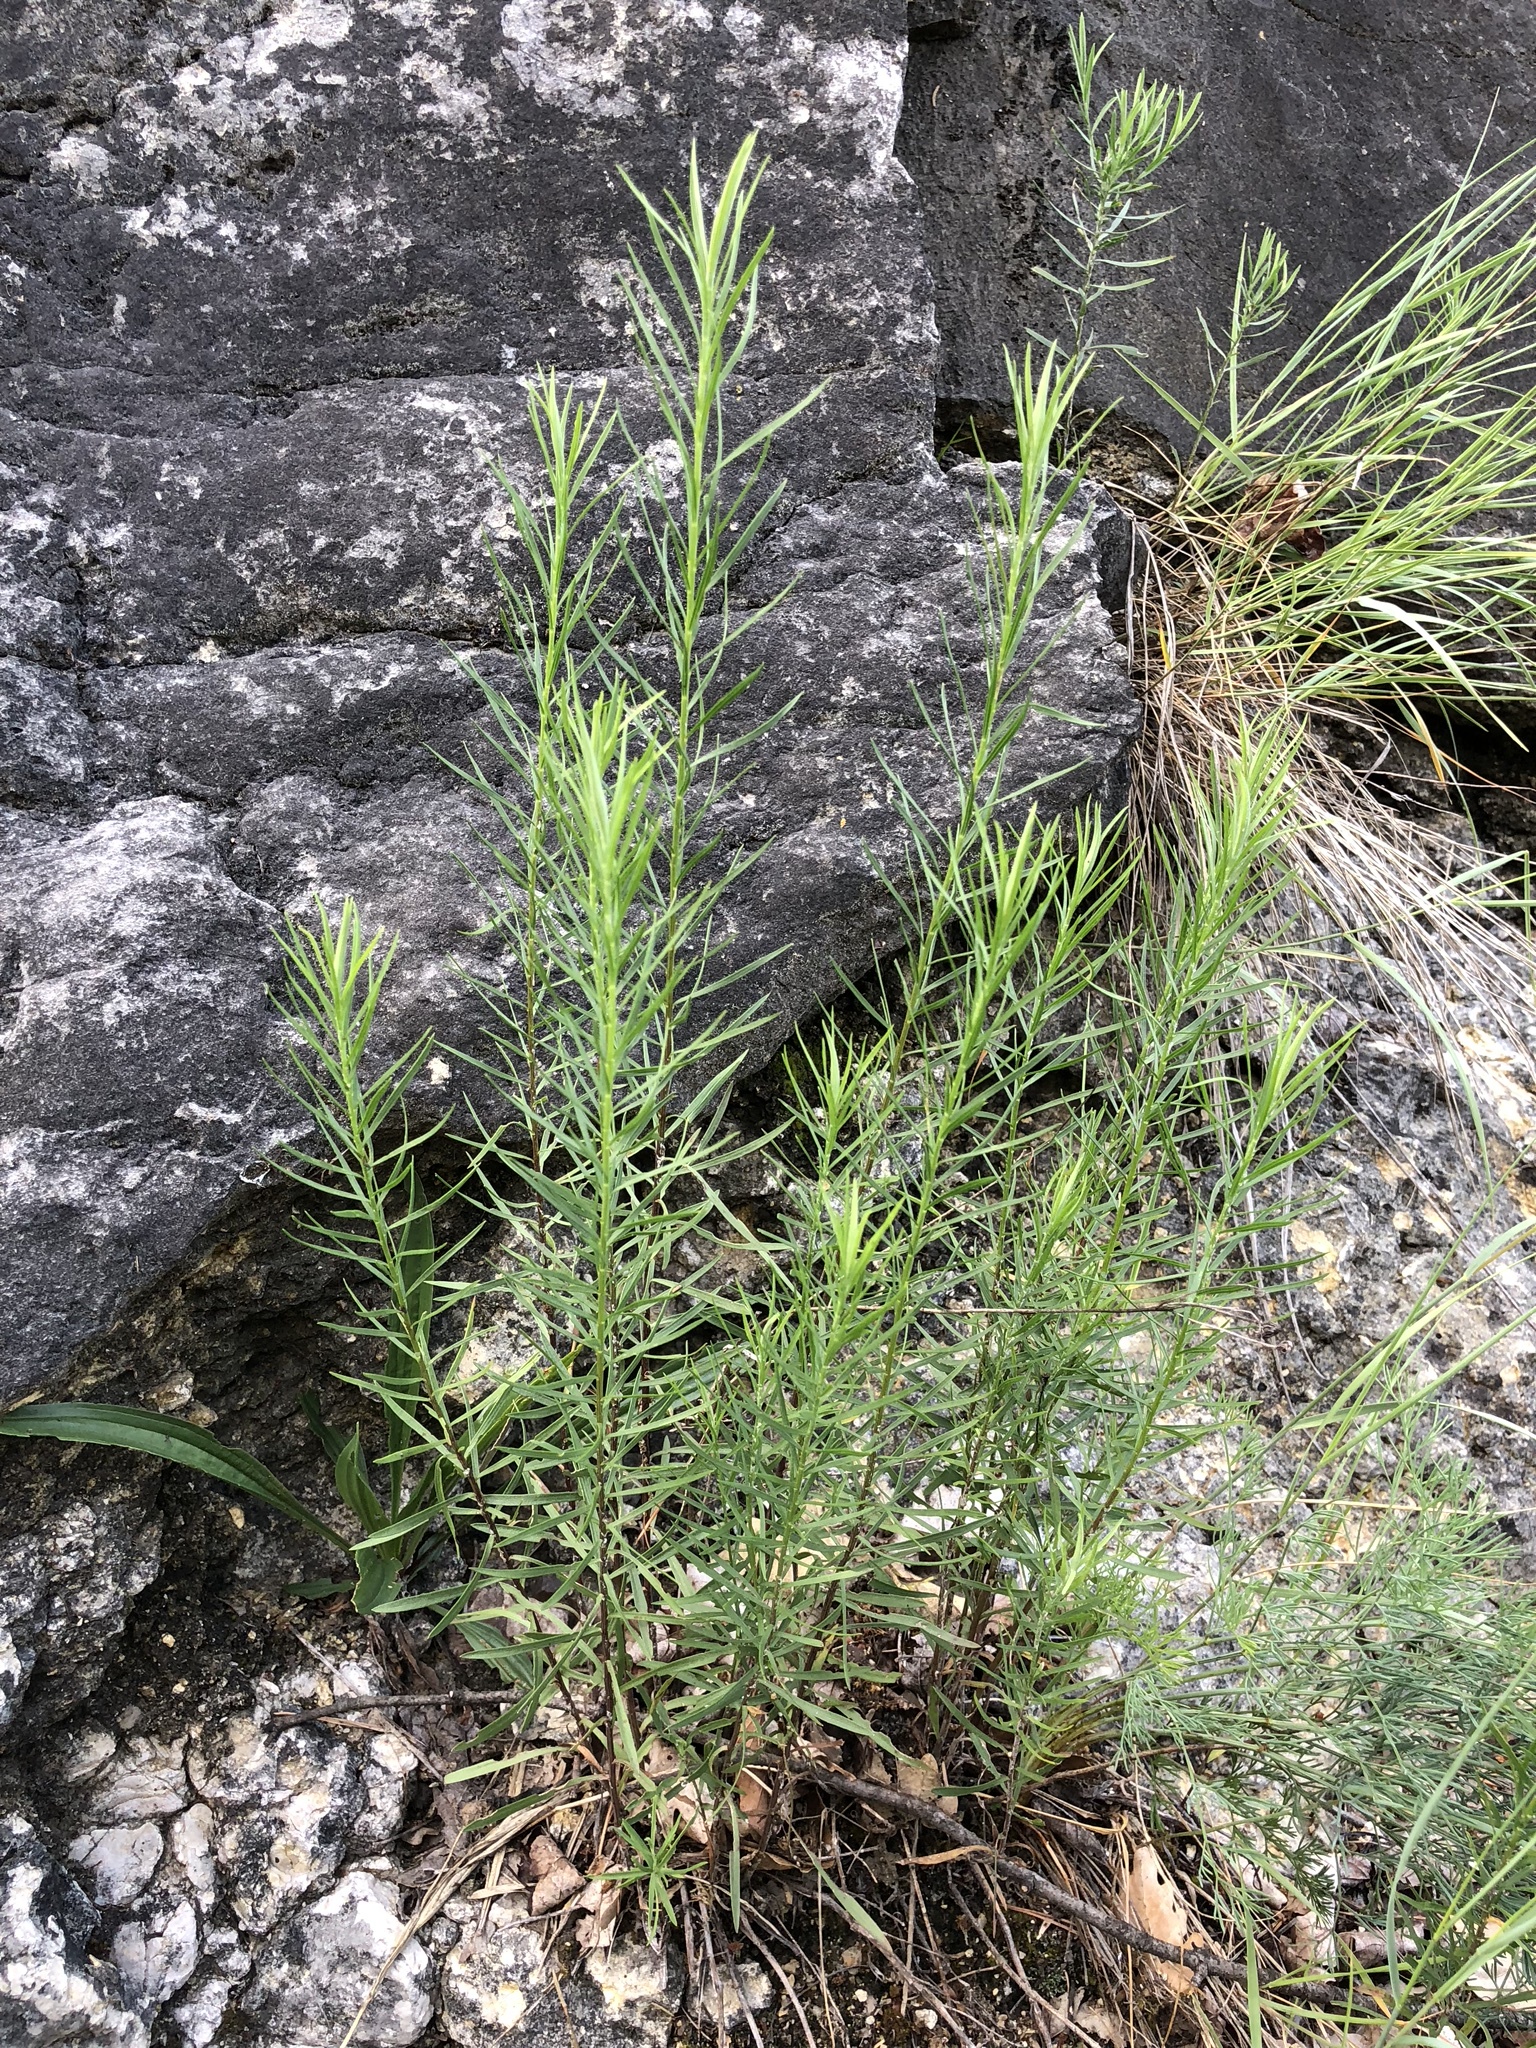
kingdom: Plantae
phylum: Tracheophyta
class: Magnoliopsida
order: Asterales
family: Asteraceae
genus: Galatella
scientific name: Galatella linosyris
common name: Goldilocks aster
